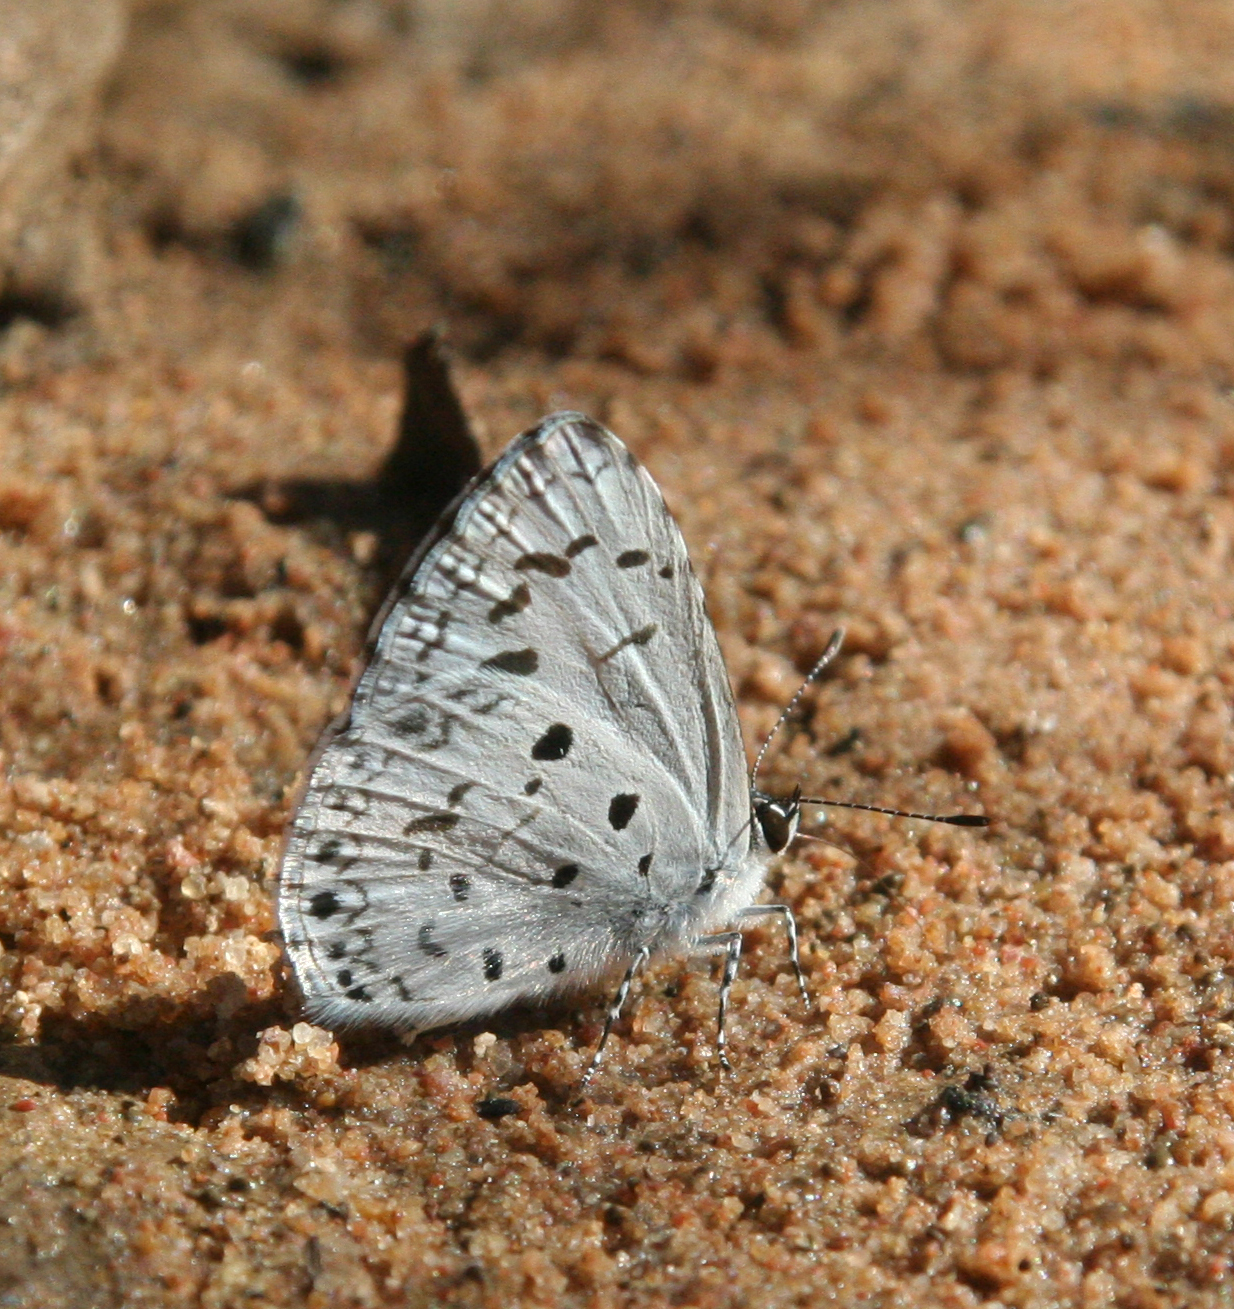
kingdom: Animalia
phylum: Arthropoda
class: Insecta
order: Lepidoptera
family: Lycaenidae
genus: Acytolepis
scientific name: Acytolepis puspa
